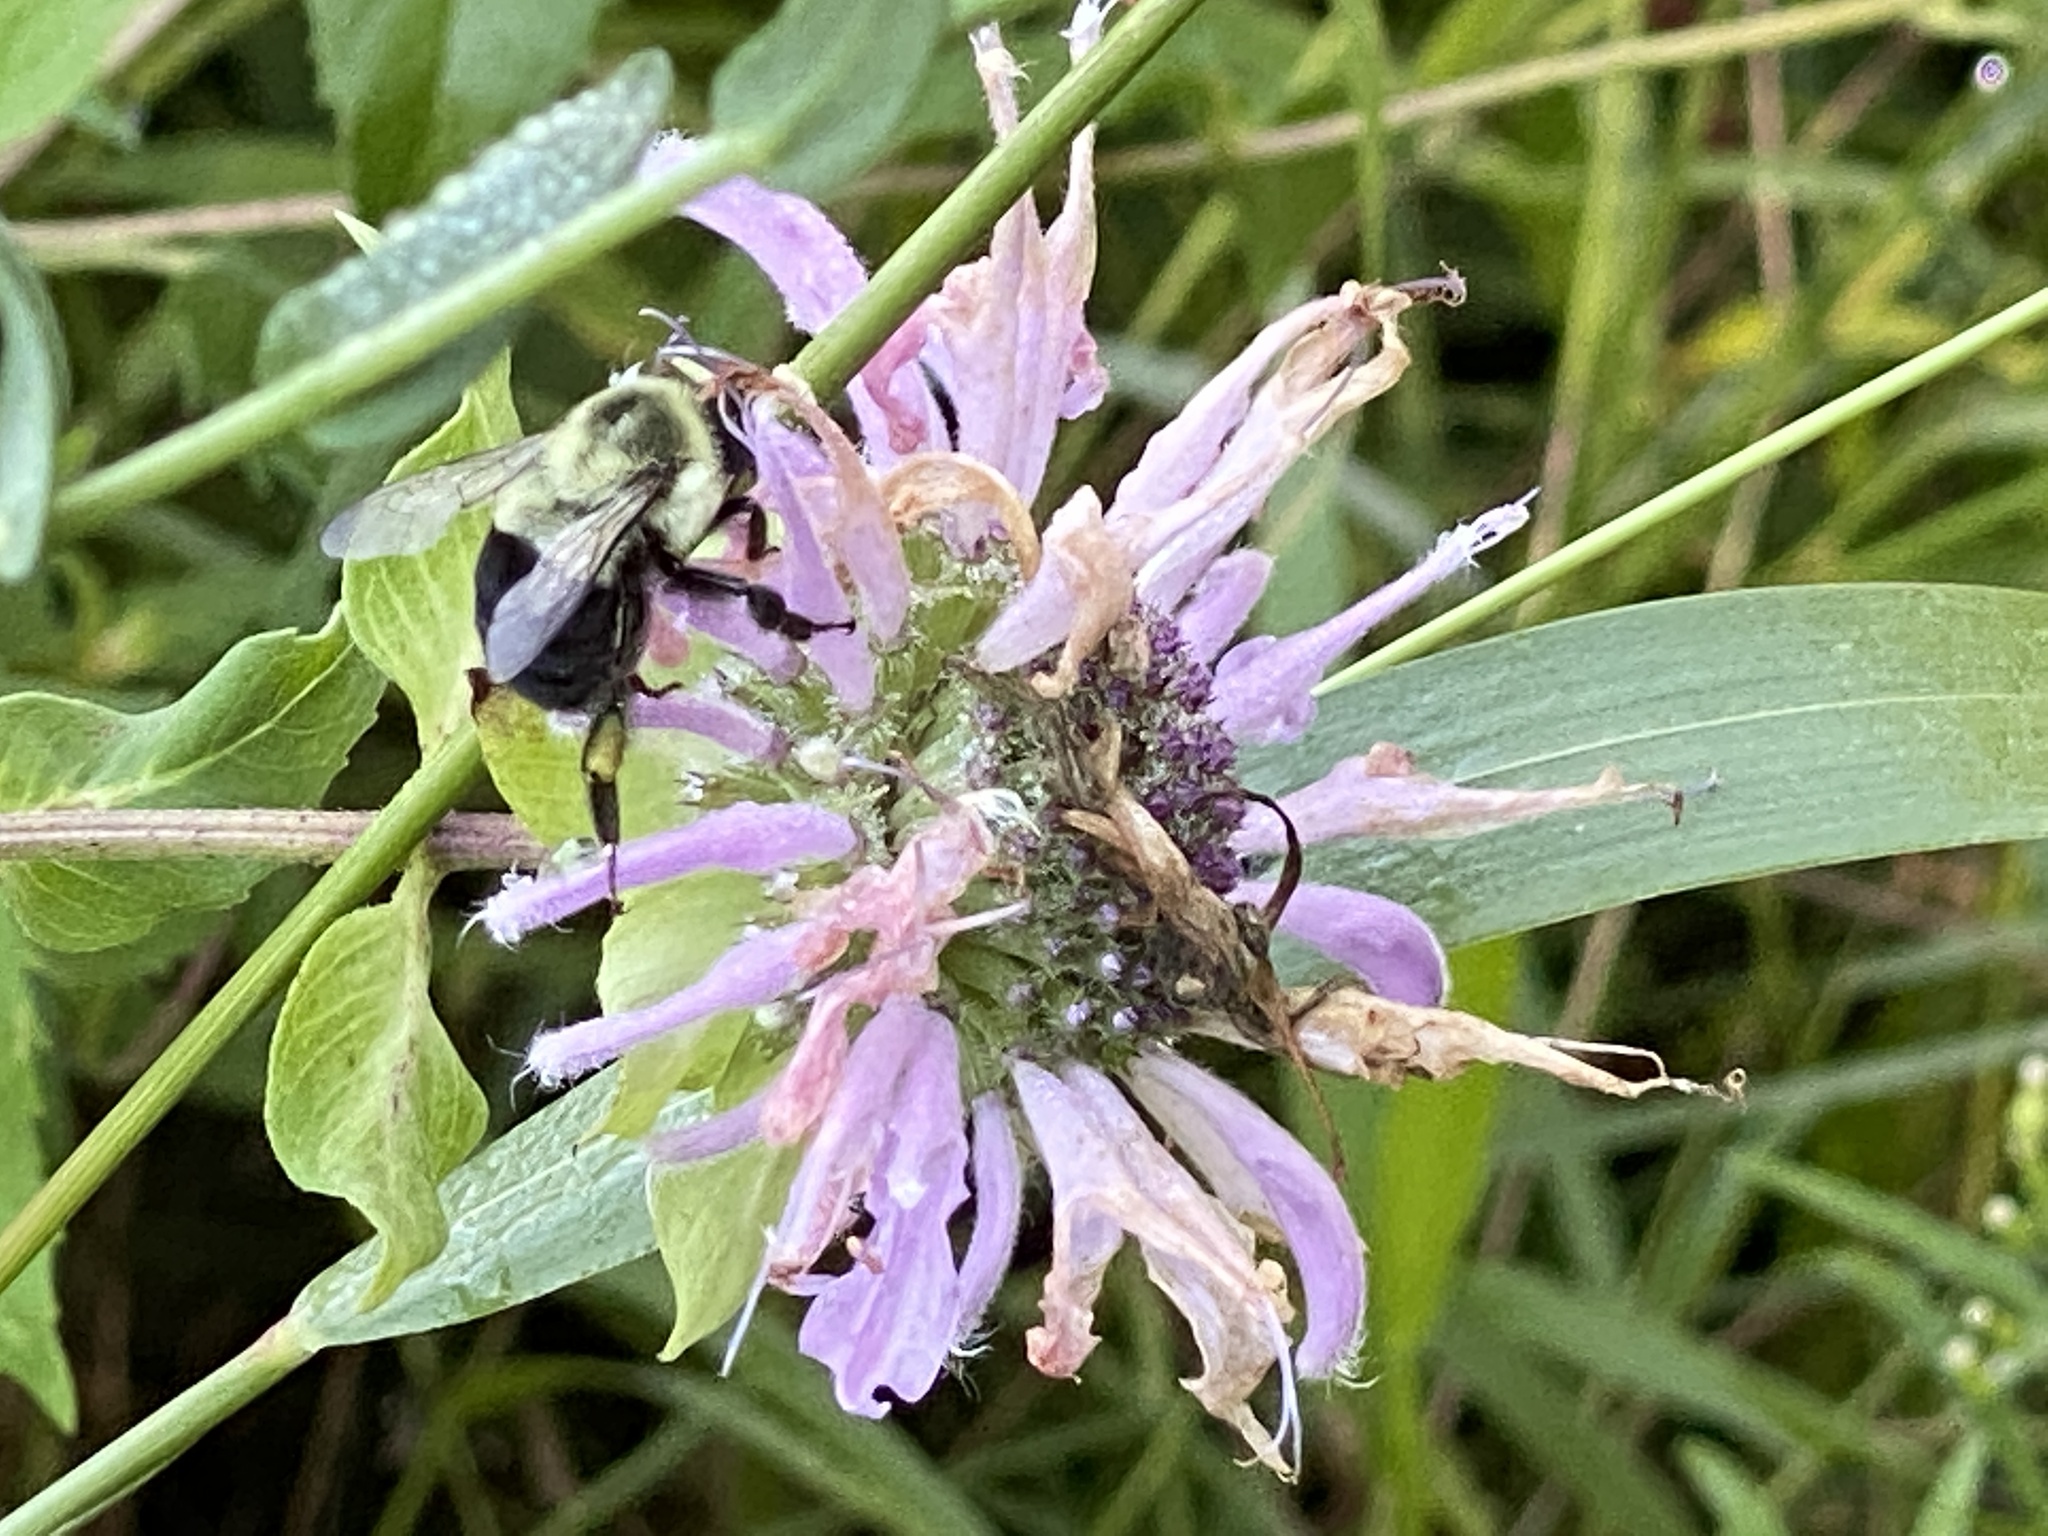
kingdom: Animalia
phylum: Arthropoda
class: Insecta
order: Hymenoptera
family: Apidae
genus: Bombus
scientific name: Bombus impatiens
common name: Common eastern bumble bee
